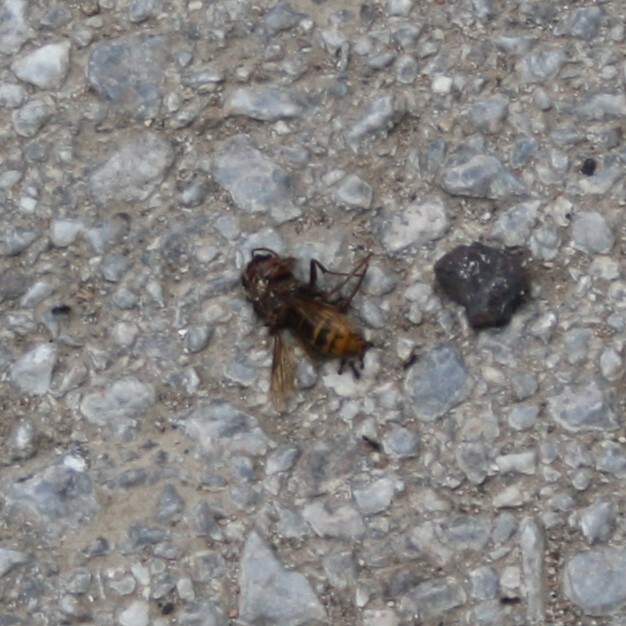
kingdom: Animalia
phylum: Arthropoda
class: Insecta
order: Hymenoptera
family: Vespidae
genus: Vespa
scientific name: Vespa crabro
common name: Hornet
